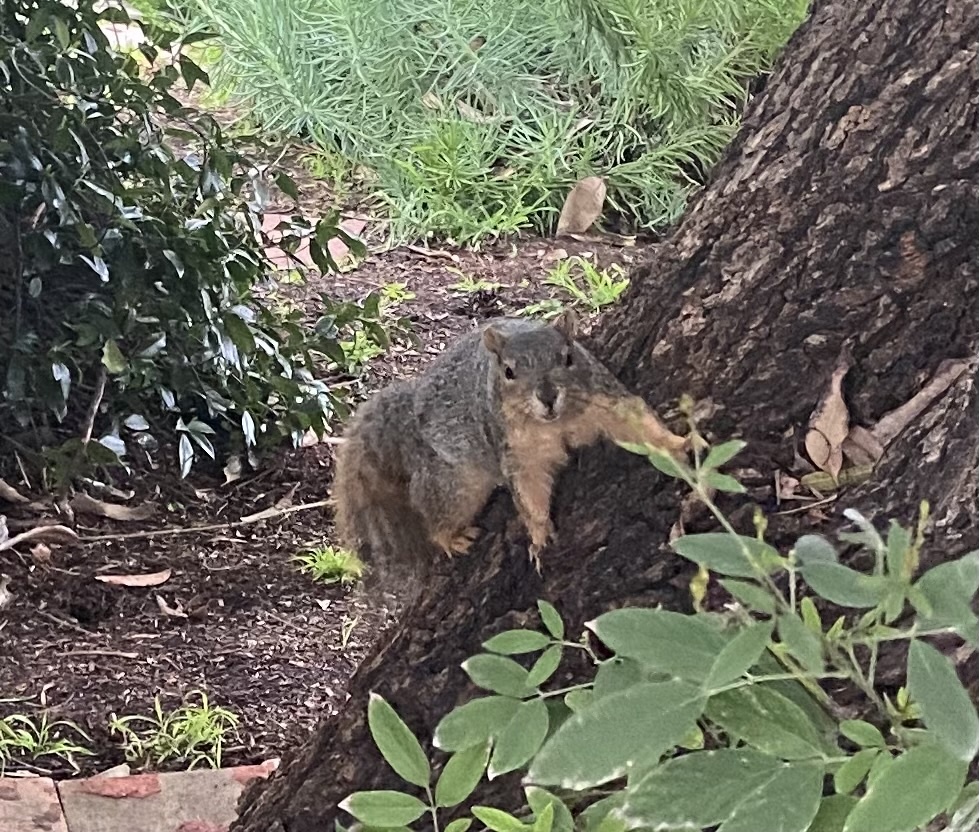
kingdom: Animalia
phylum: Chordata
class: Mammalia
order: Rodentia
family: Sciuridae
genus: Sciurus
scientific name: Sciurus niger
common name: Fox squirrel
